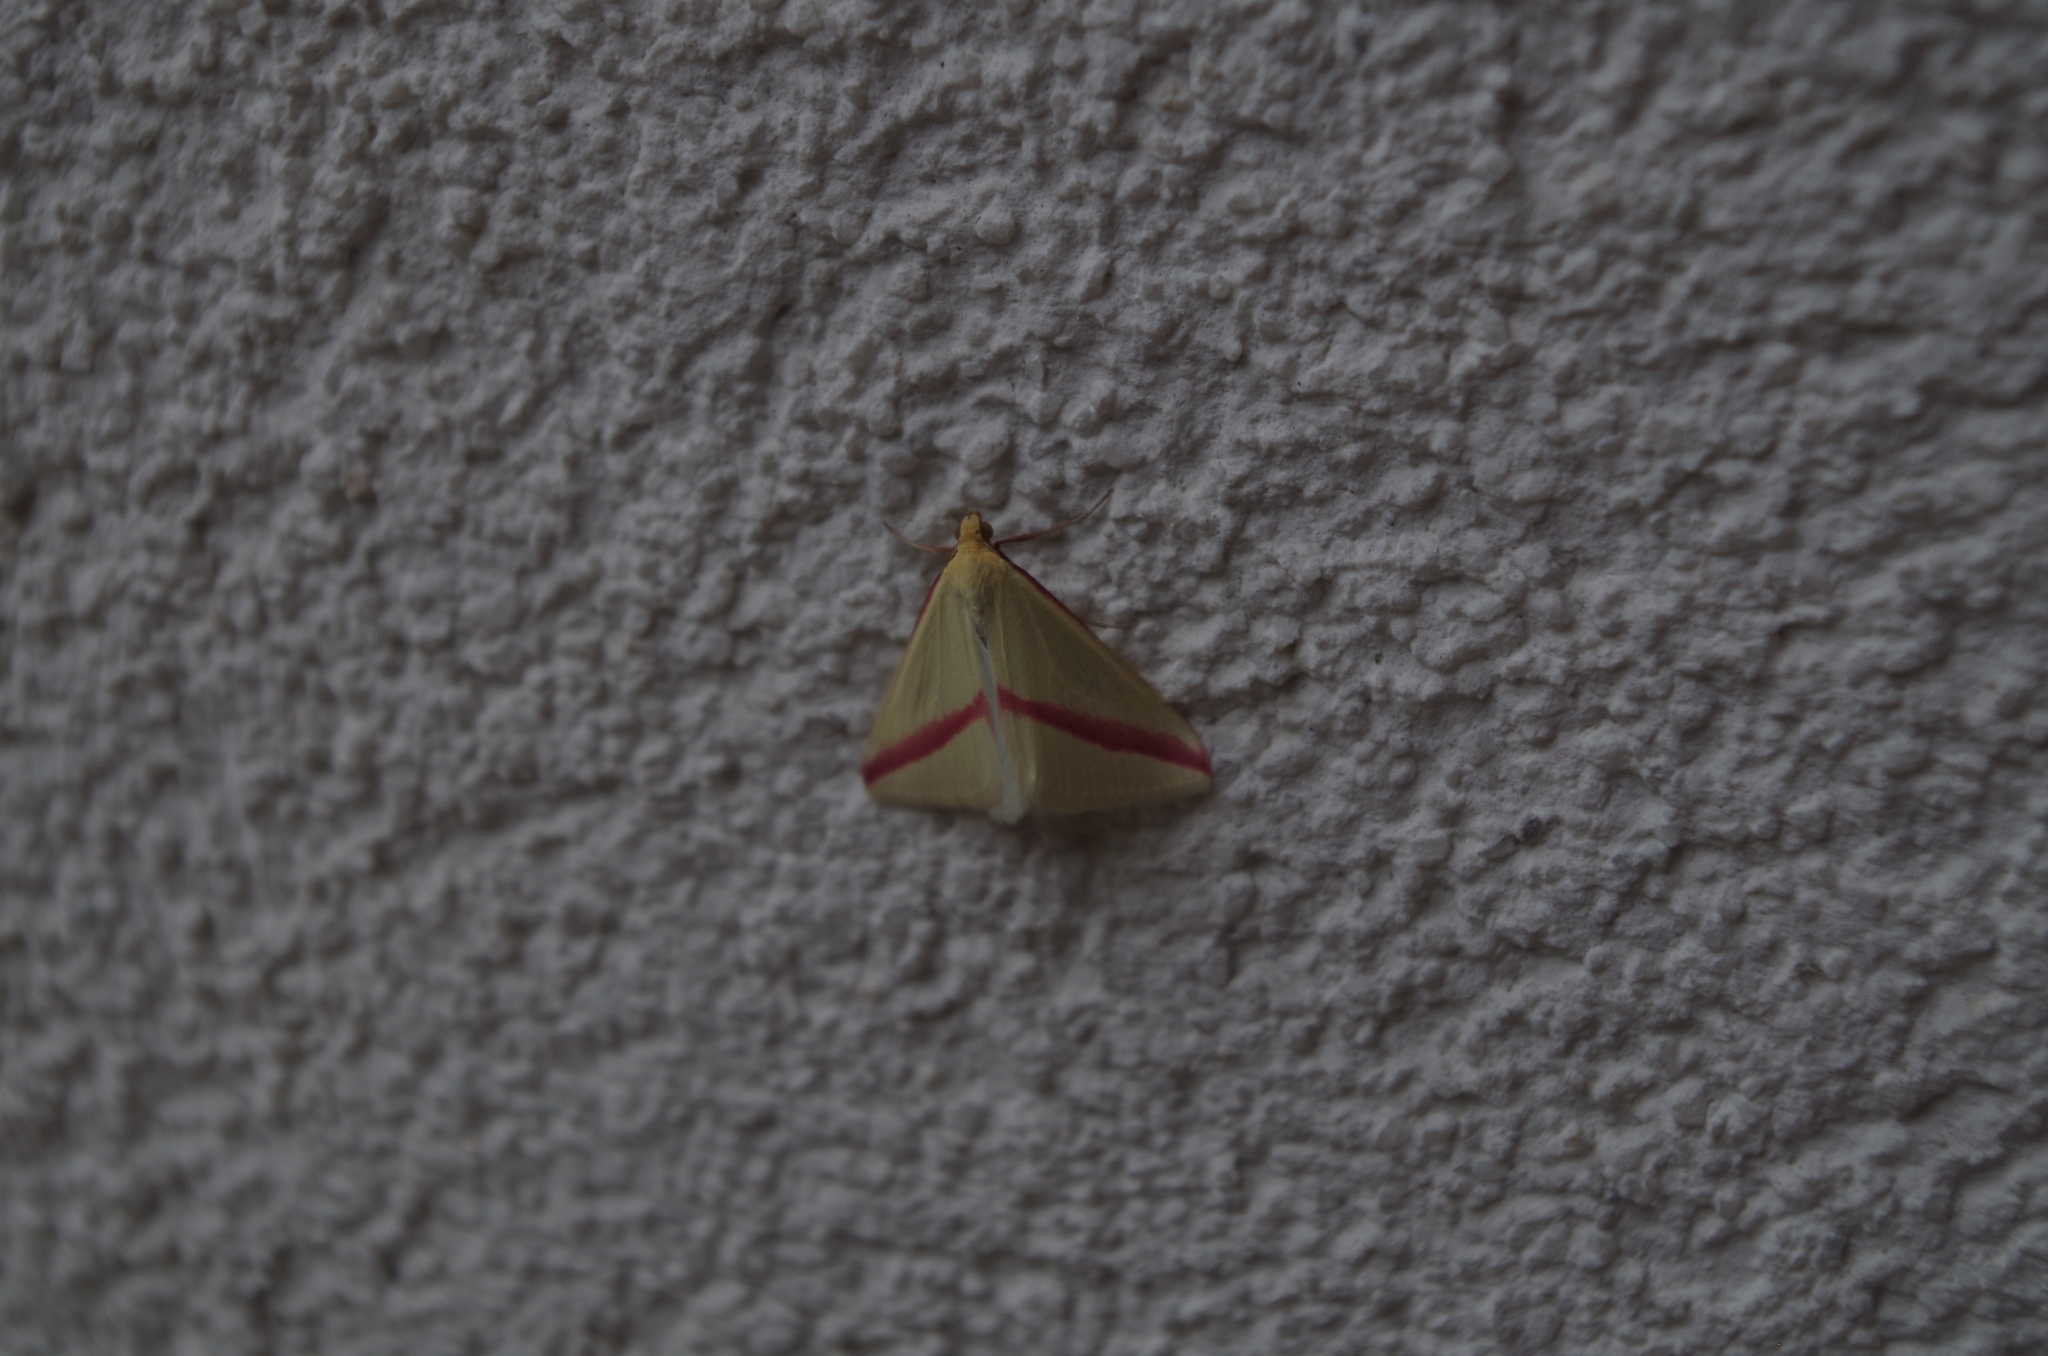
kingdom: Animalia
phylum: Arthropoda
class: Insecta
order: Lepidoptera
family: Geometridae
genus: Rhodometra
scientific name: Rhodometra sacraria
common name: Vestal
